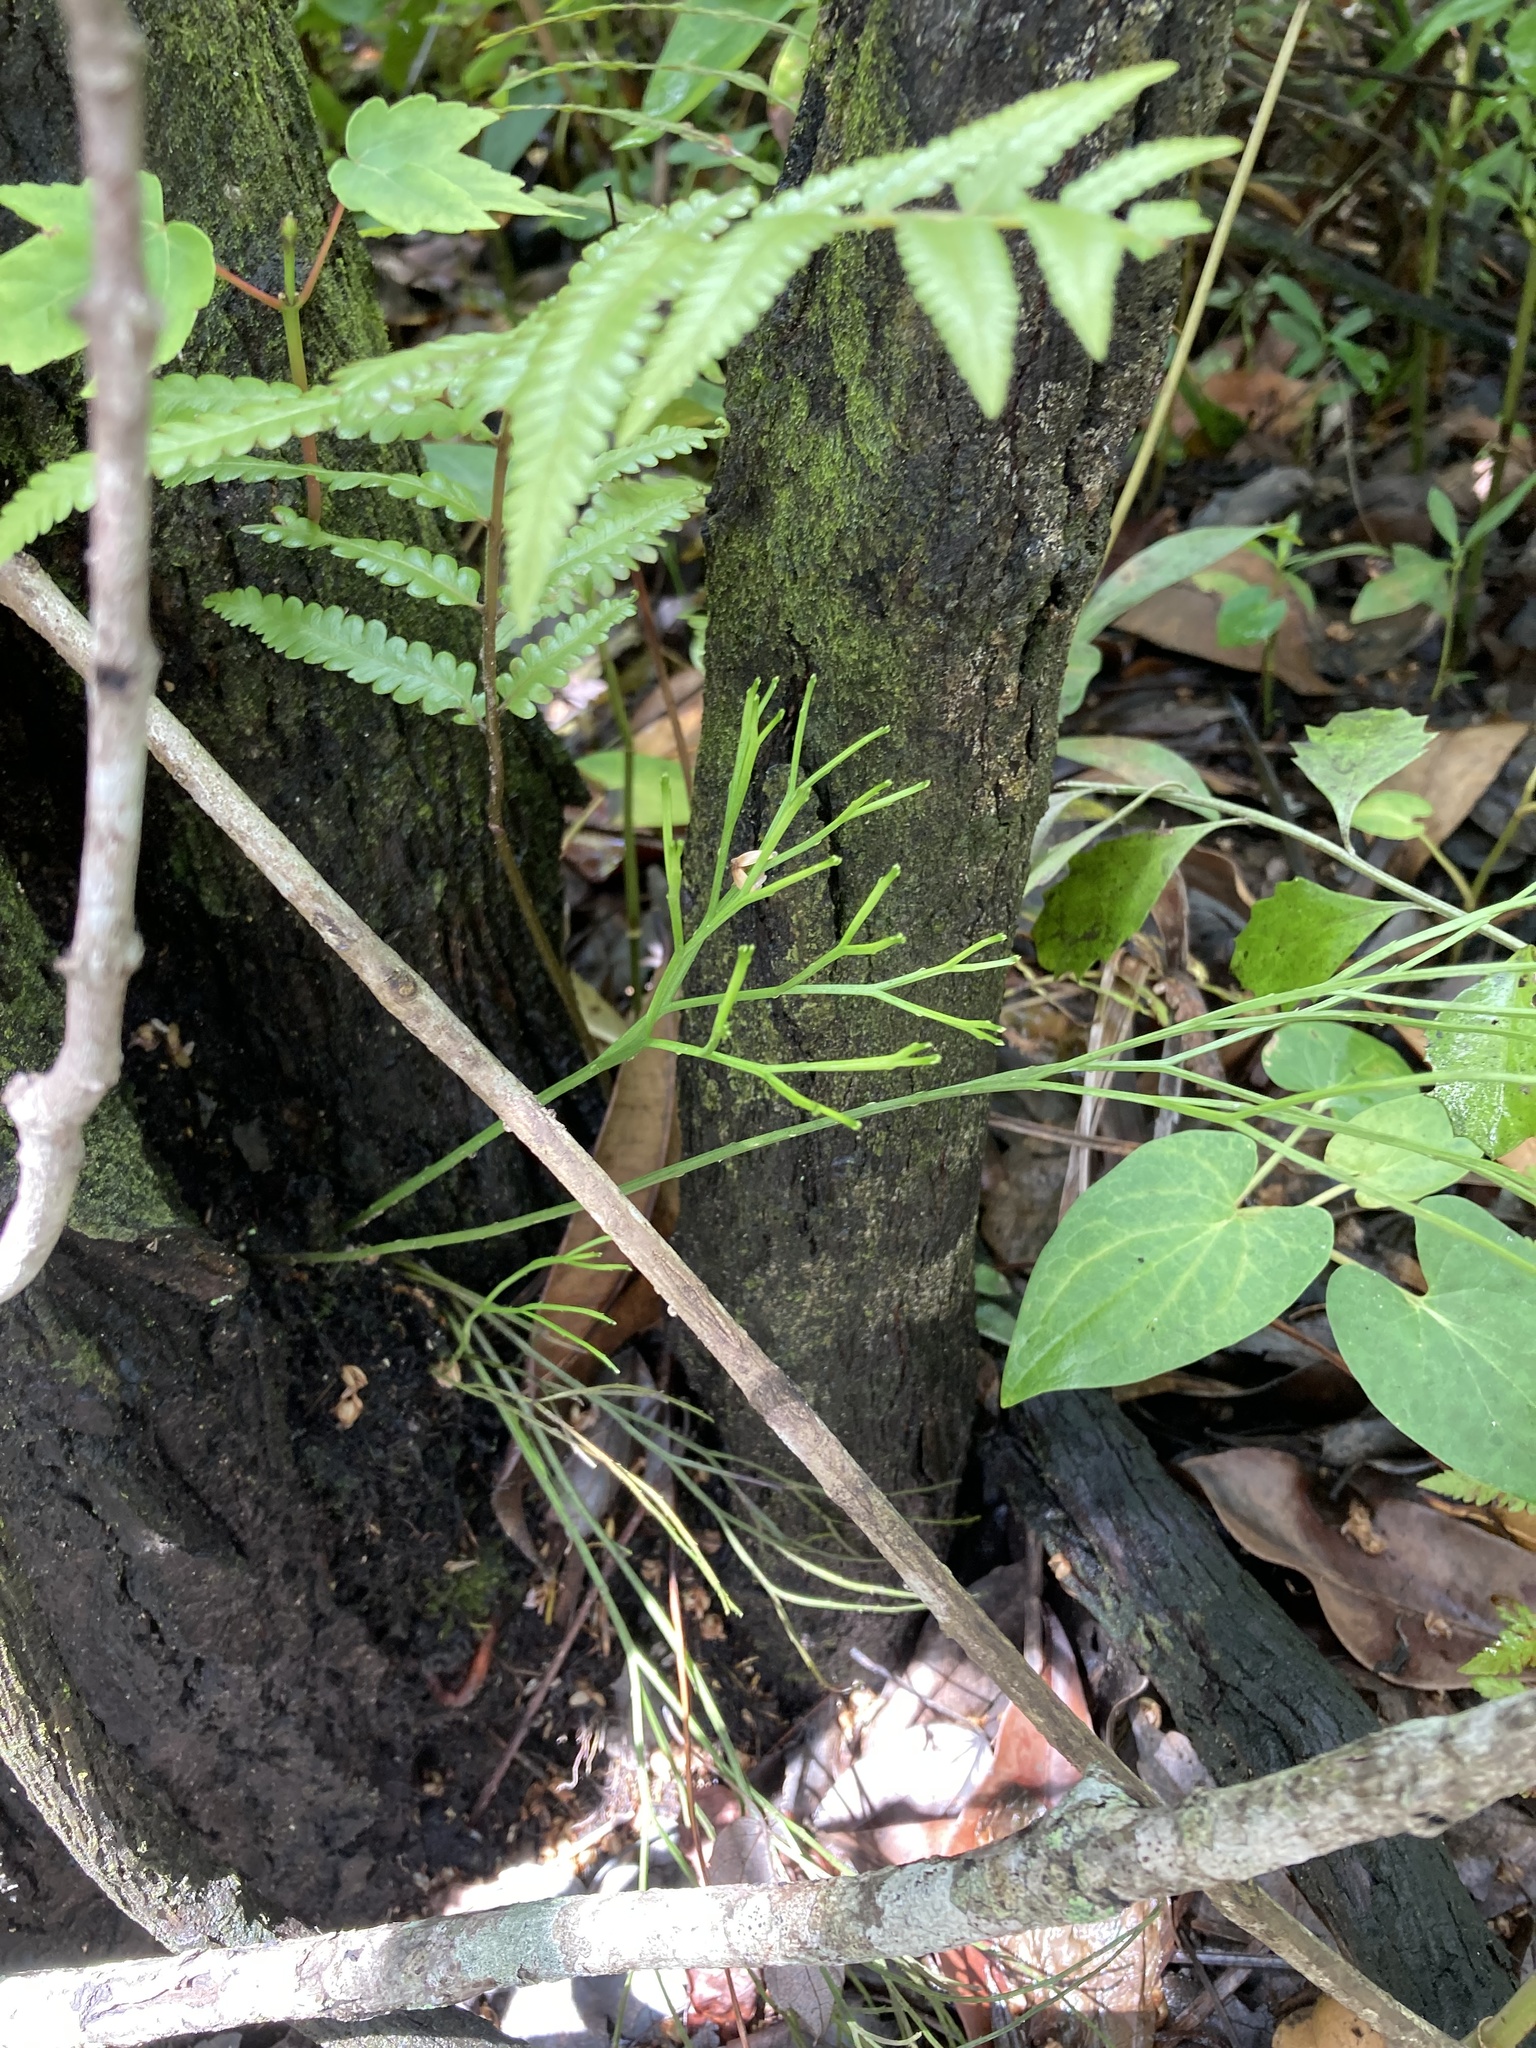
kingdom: Plantae
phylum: Tracheophyta
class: Polypodiopsida
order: Psilotales
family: Psilotaceae
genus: Psilotum
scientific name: Psilotum nudum
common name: Skeleton fork fern
